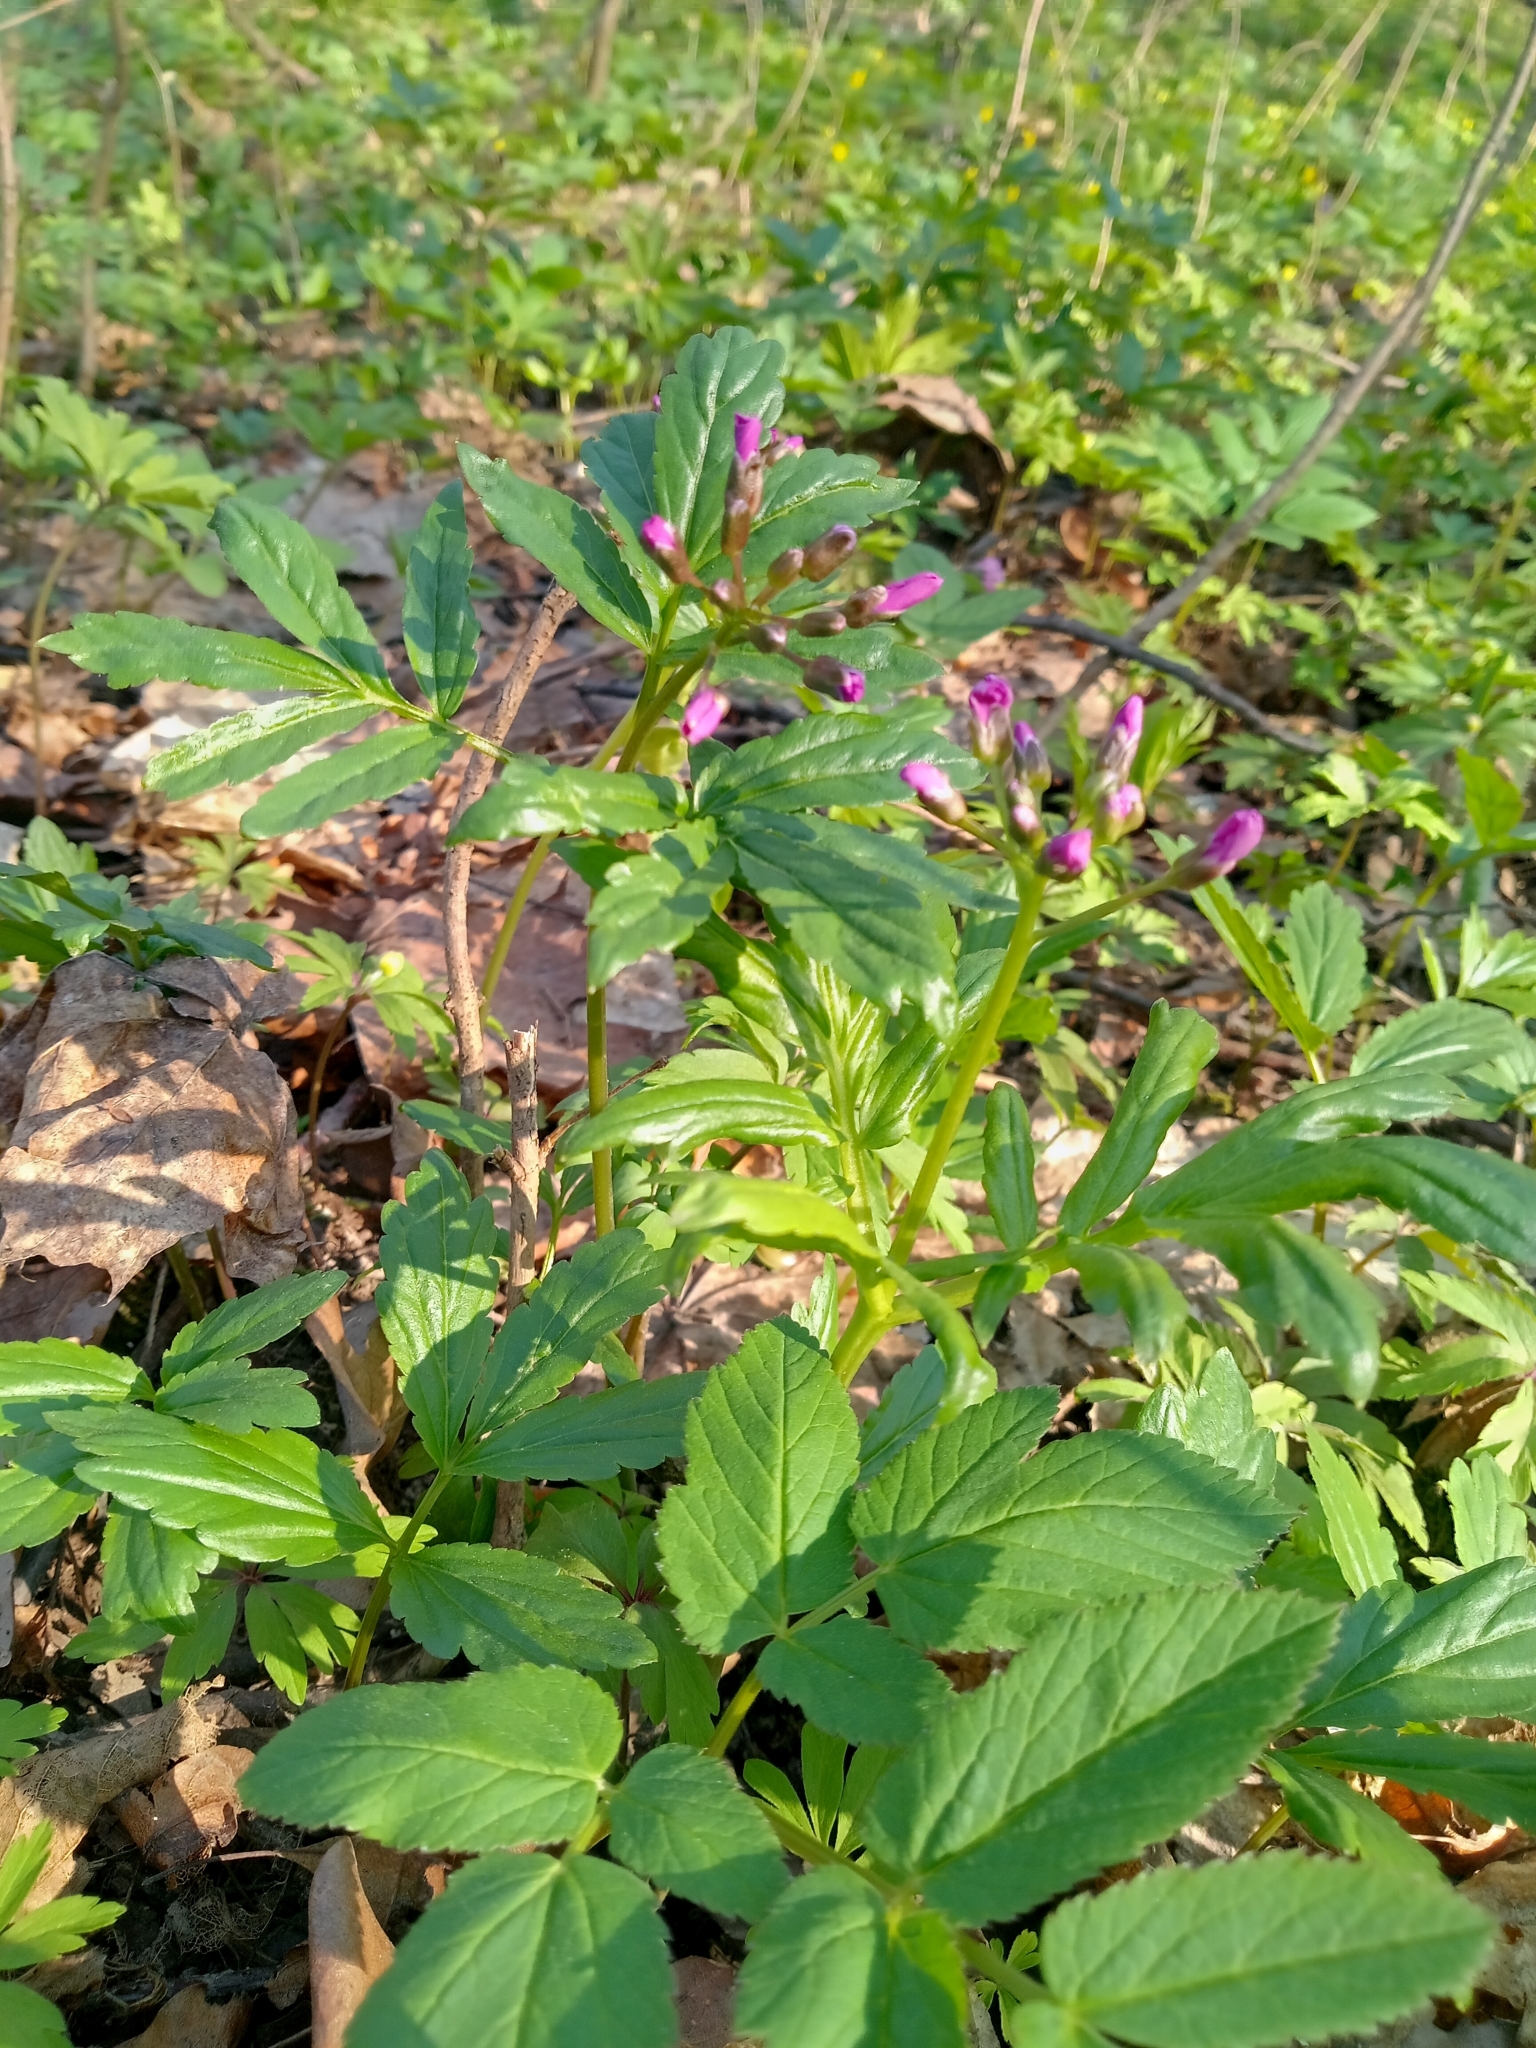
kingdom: Plantae
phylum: Tracheophyta
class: Magnoliopsida
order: Brassicales
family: Brassicaceae
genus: Cardamine
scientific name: Cardamine quinquefolia
